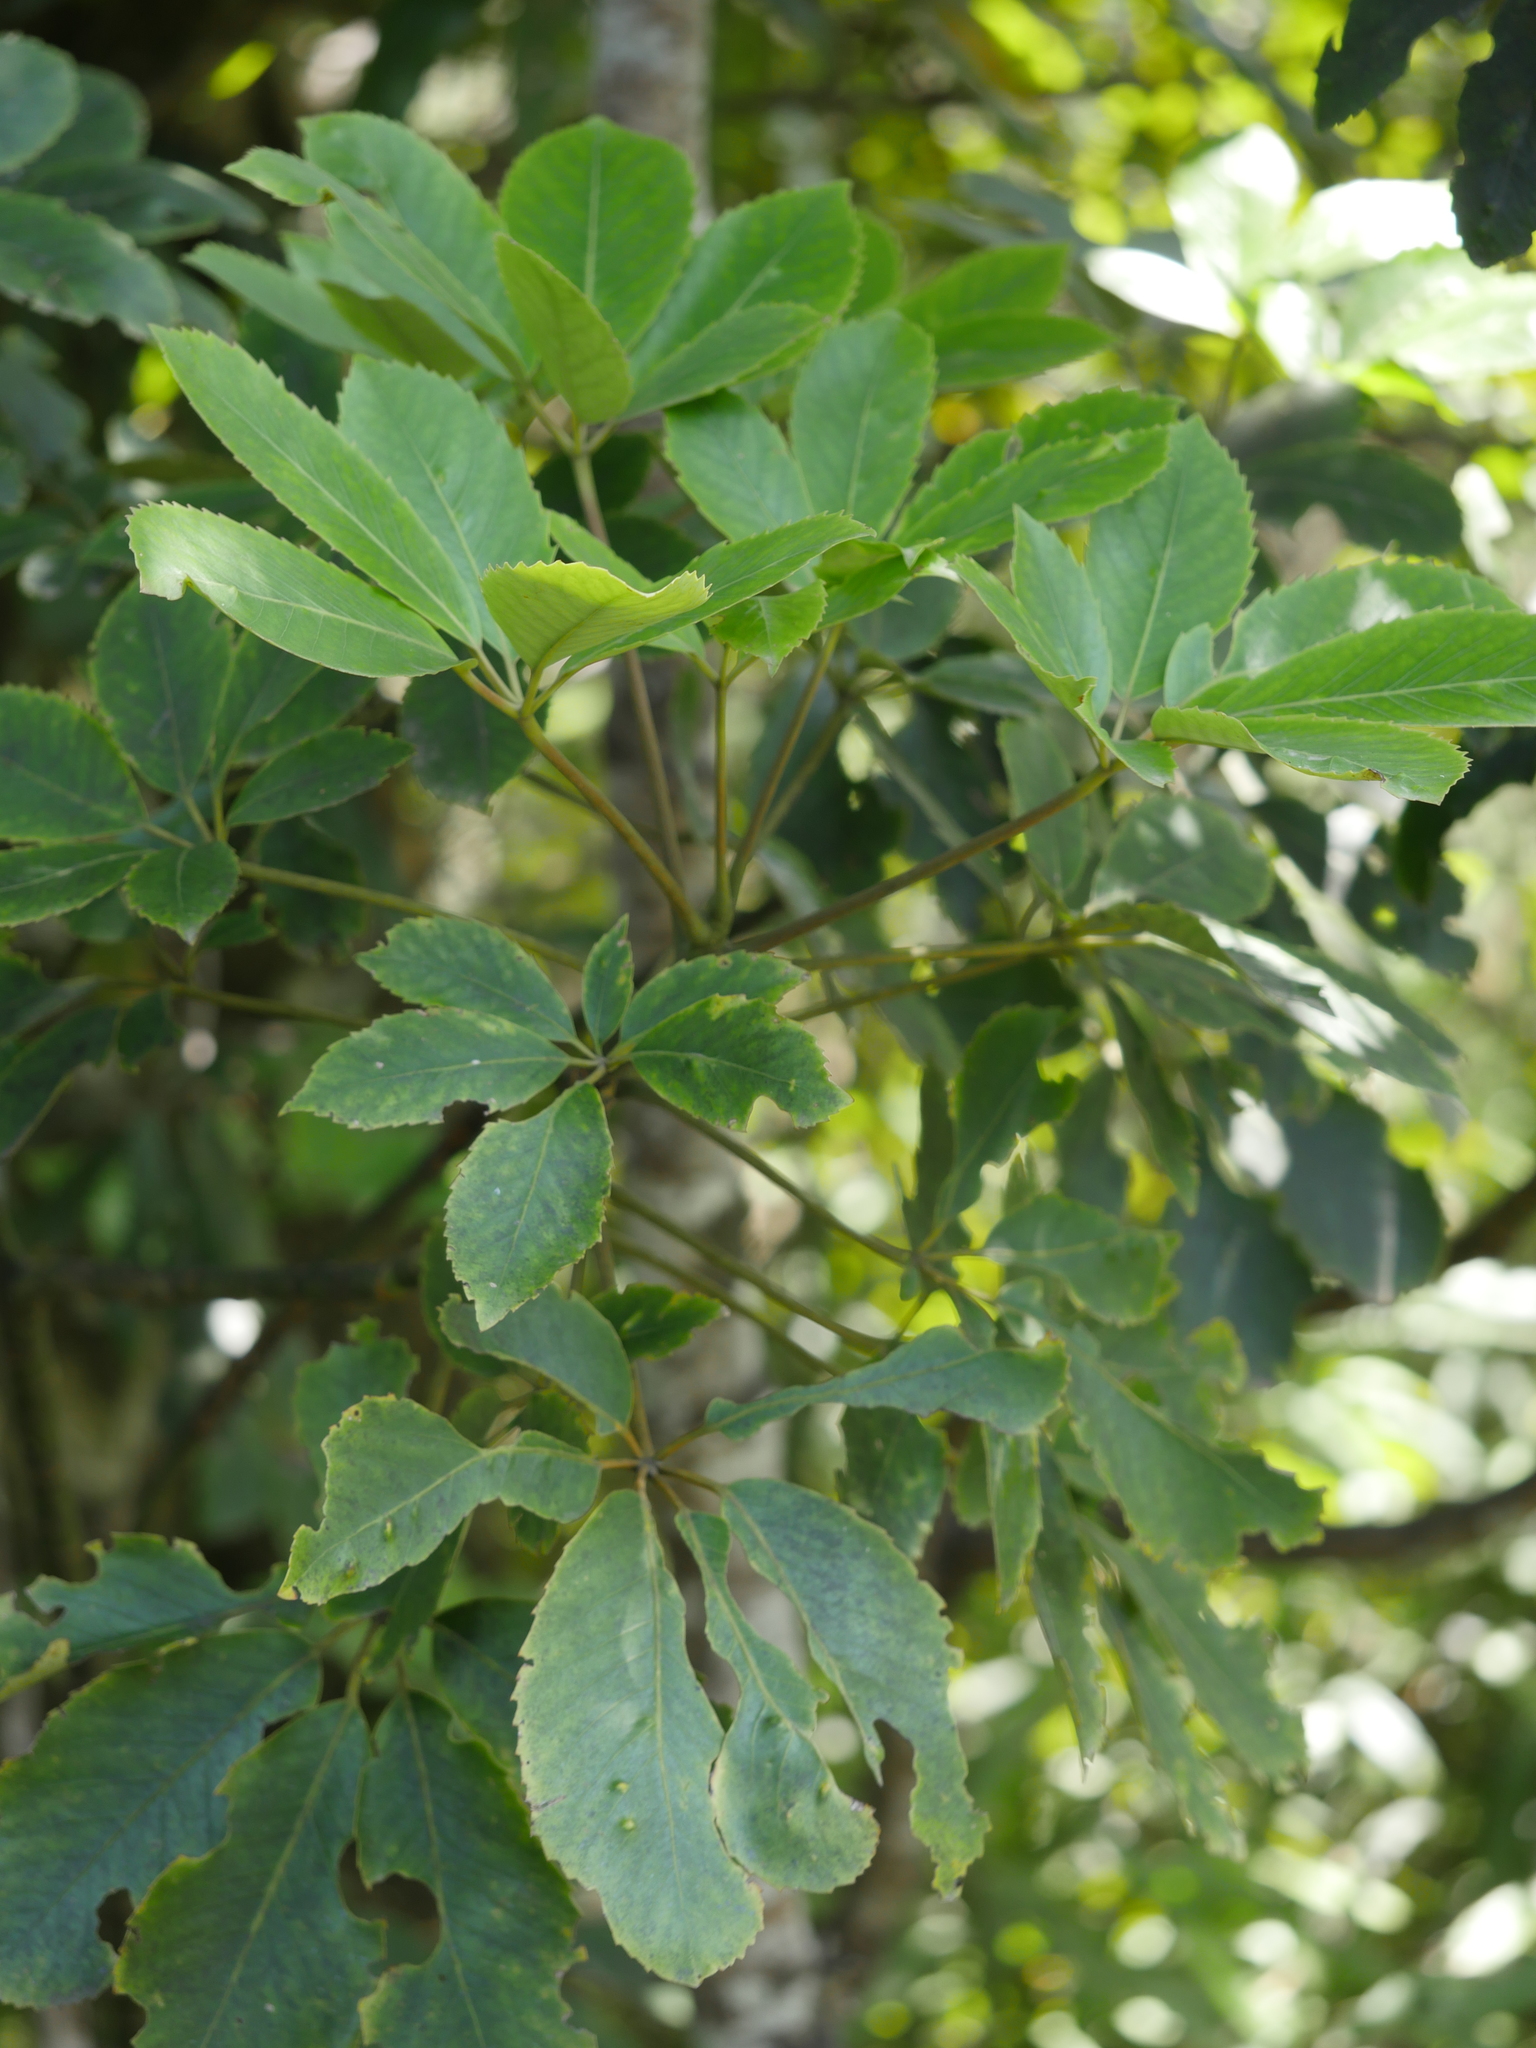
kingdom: Plantae
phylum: Tracheophyta
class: Magnoliopsida
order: Apiales
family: Araliaceae
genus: Neopanax
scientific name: Neopanax arboreus
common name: Five-fingers
